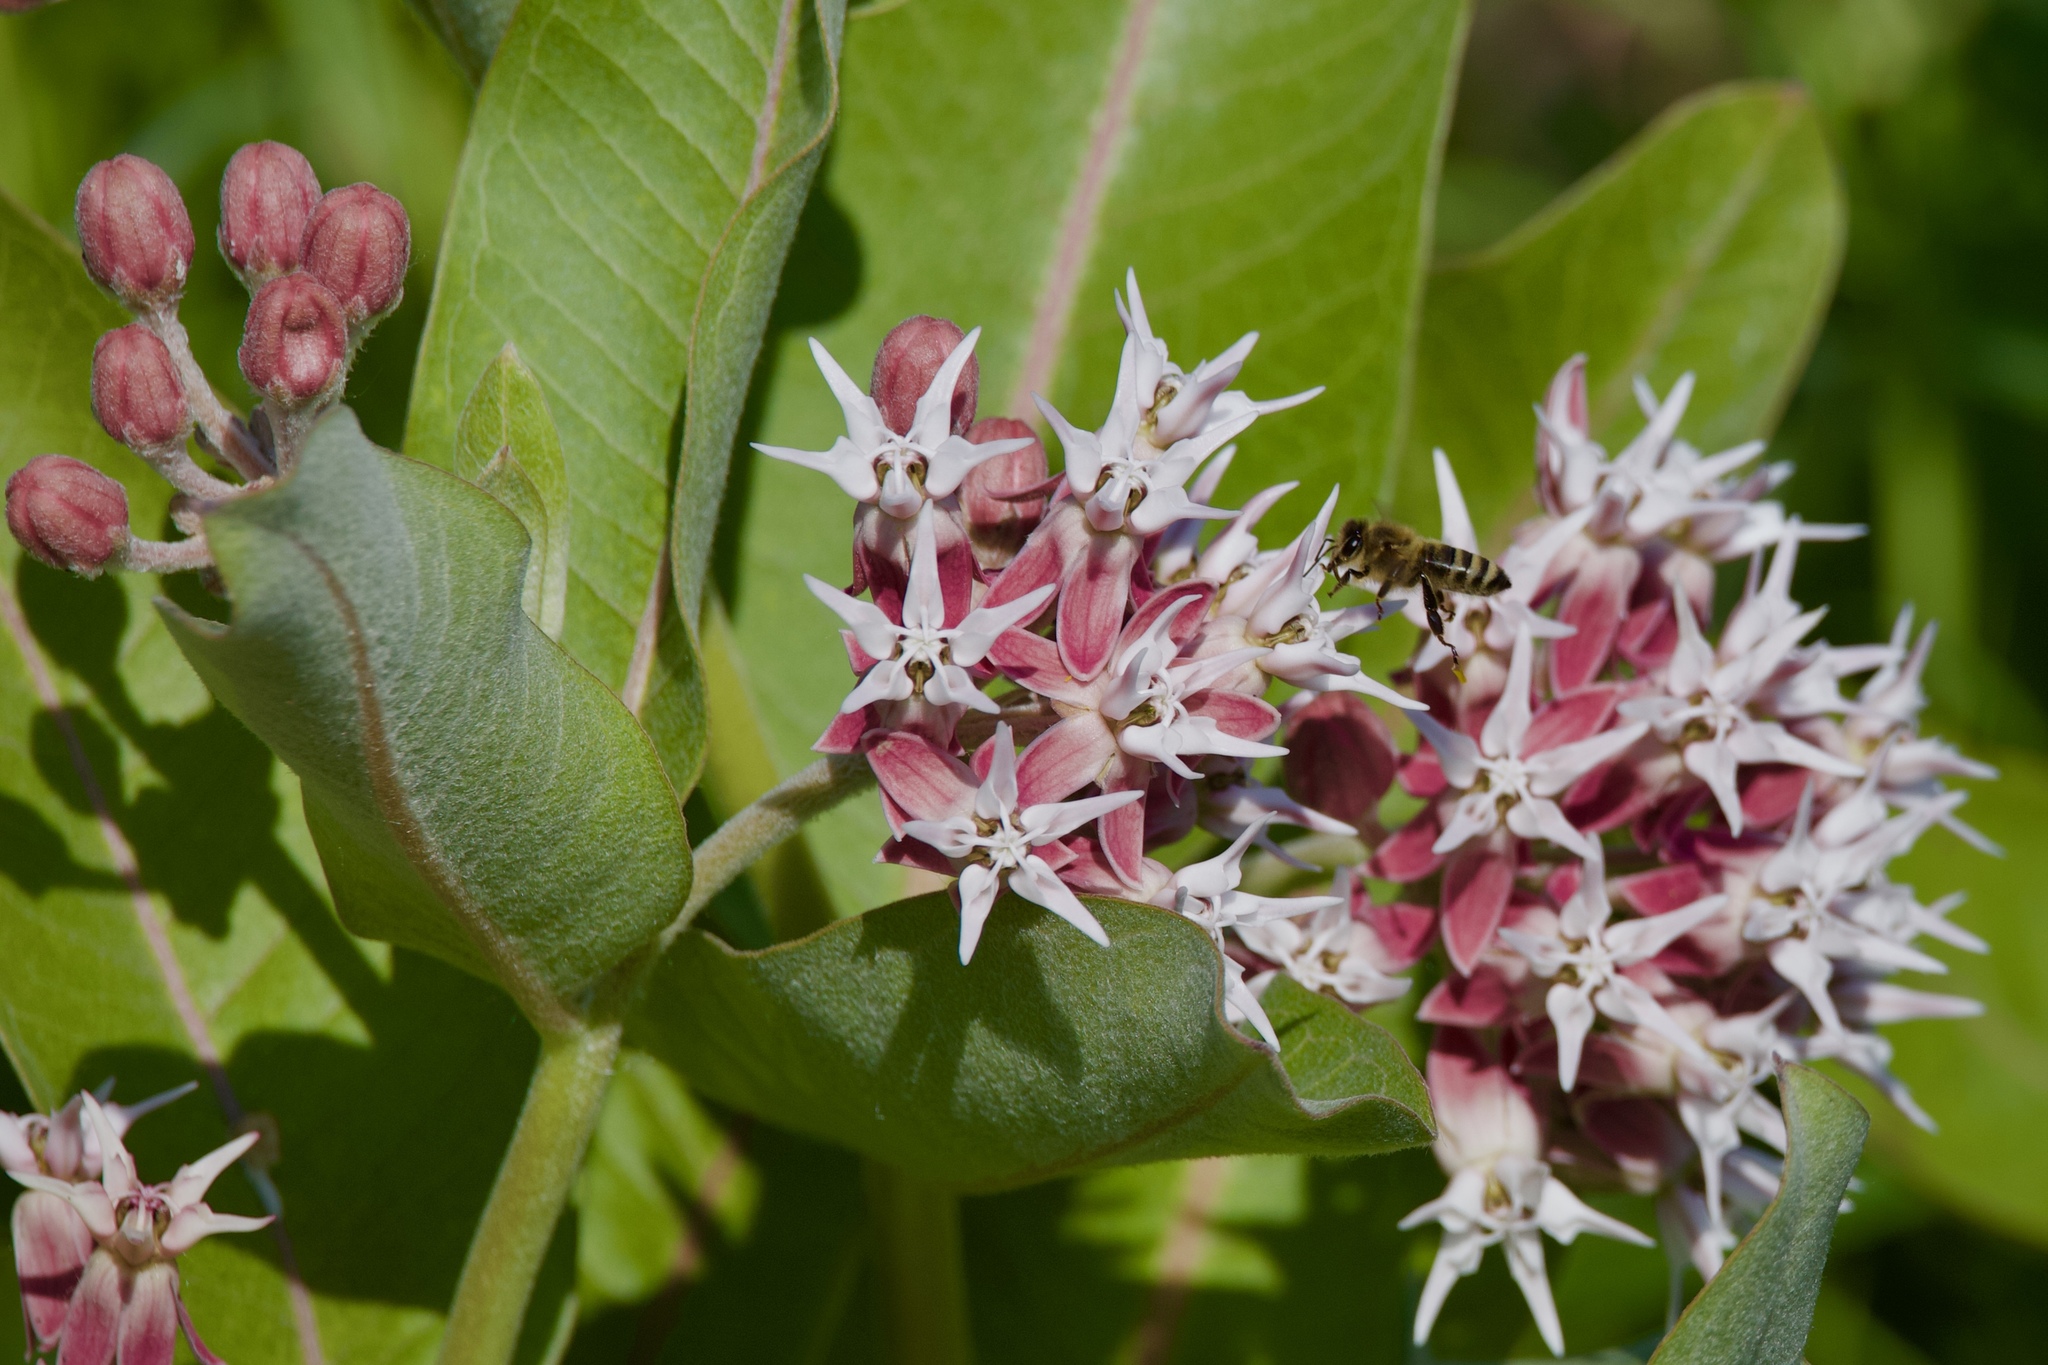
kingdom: Plantae
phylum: Tracheophyta
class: Magnoliopsida
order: Gentianales
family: Apocynaceae
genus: Asclepias
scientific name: Asclepias speciosa
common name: Showy milkweed
